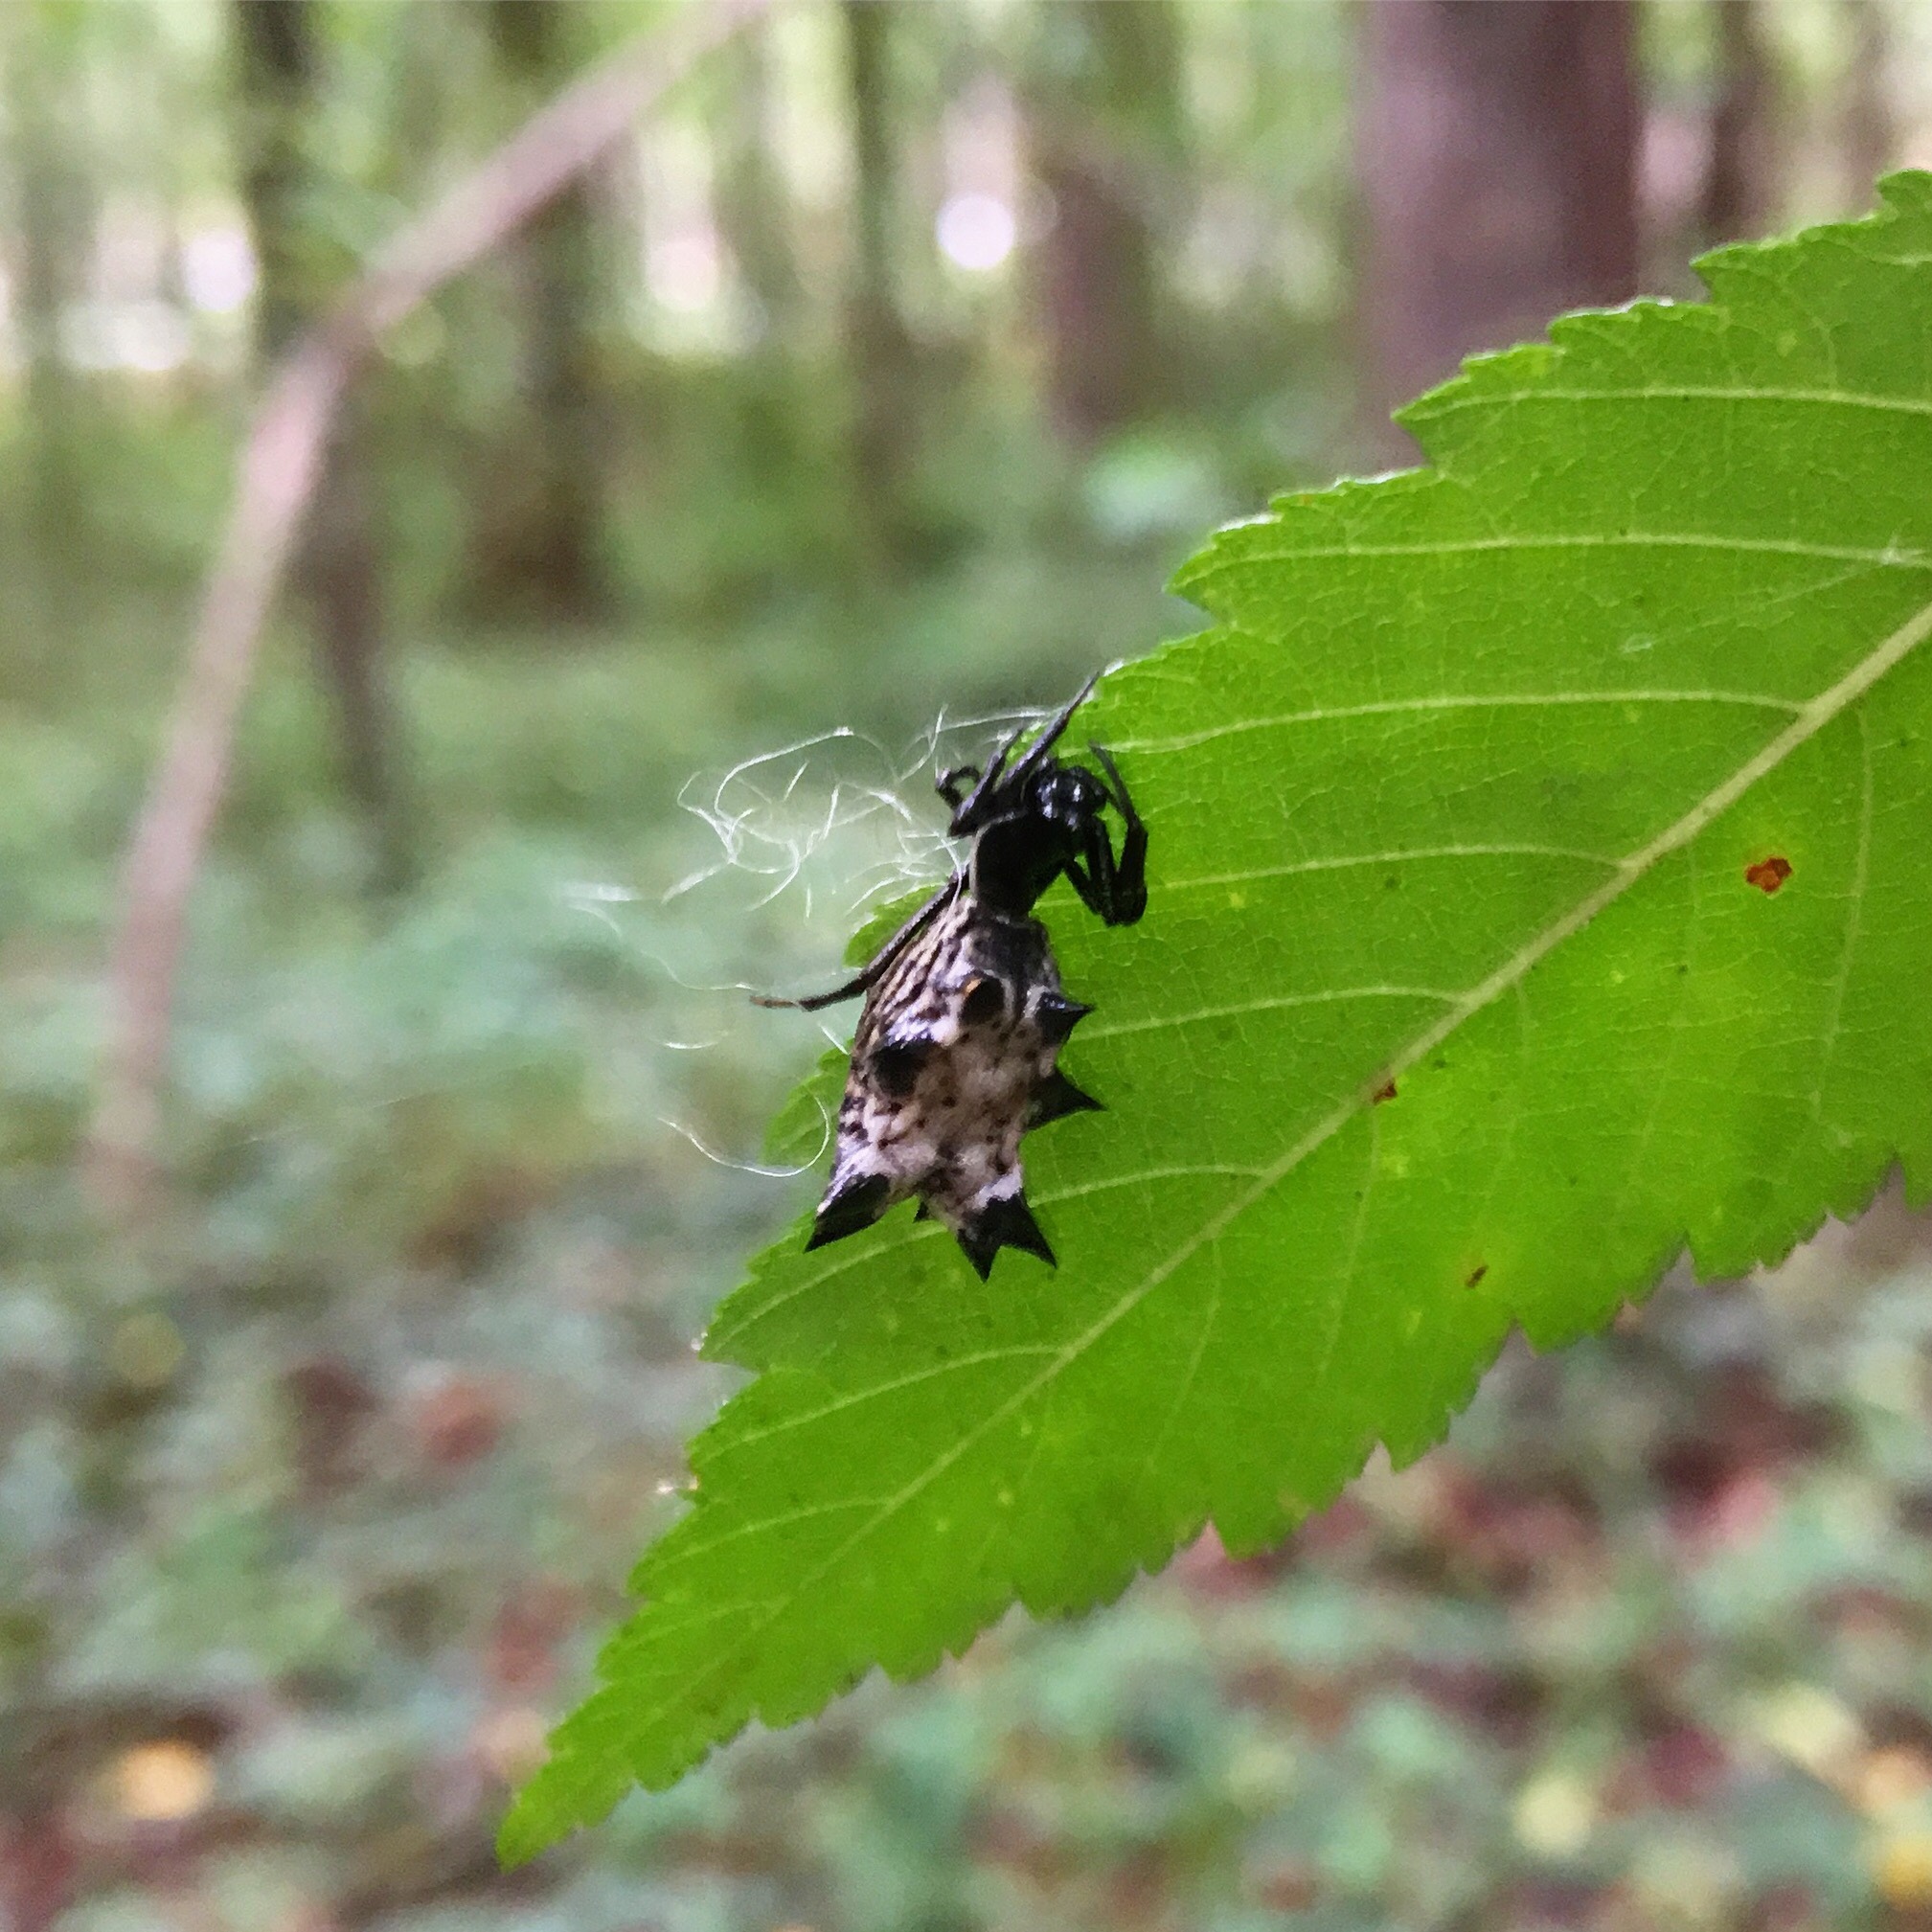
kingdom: Animalia
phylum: Arthropoda
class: Arachnida
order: Araneae
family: Araneidae
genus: Micrathena
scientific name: Micrathena gracilis
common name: Orb weavers
